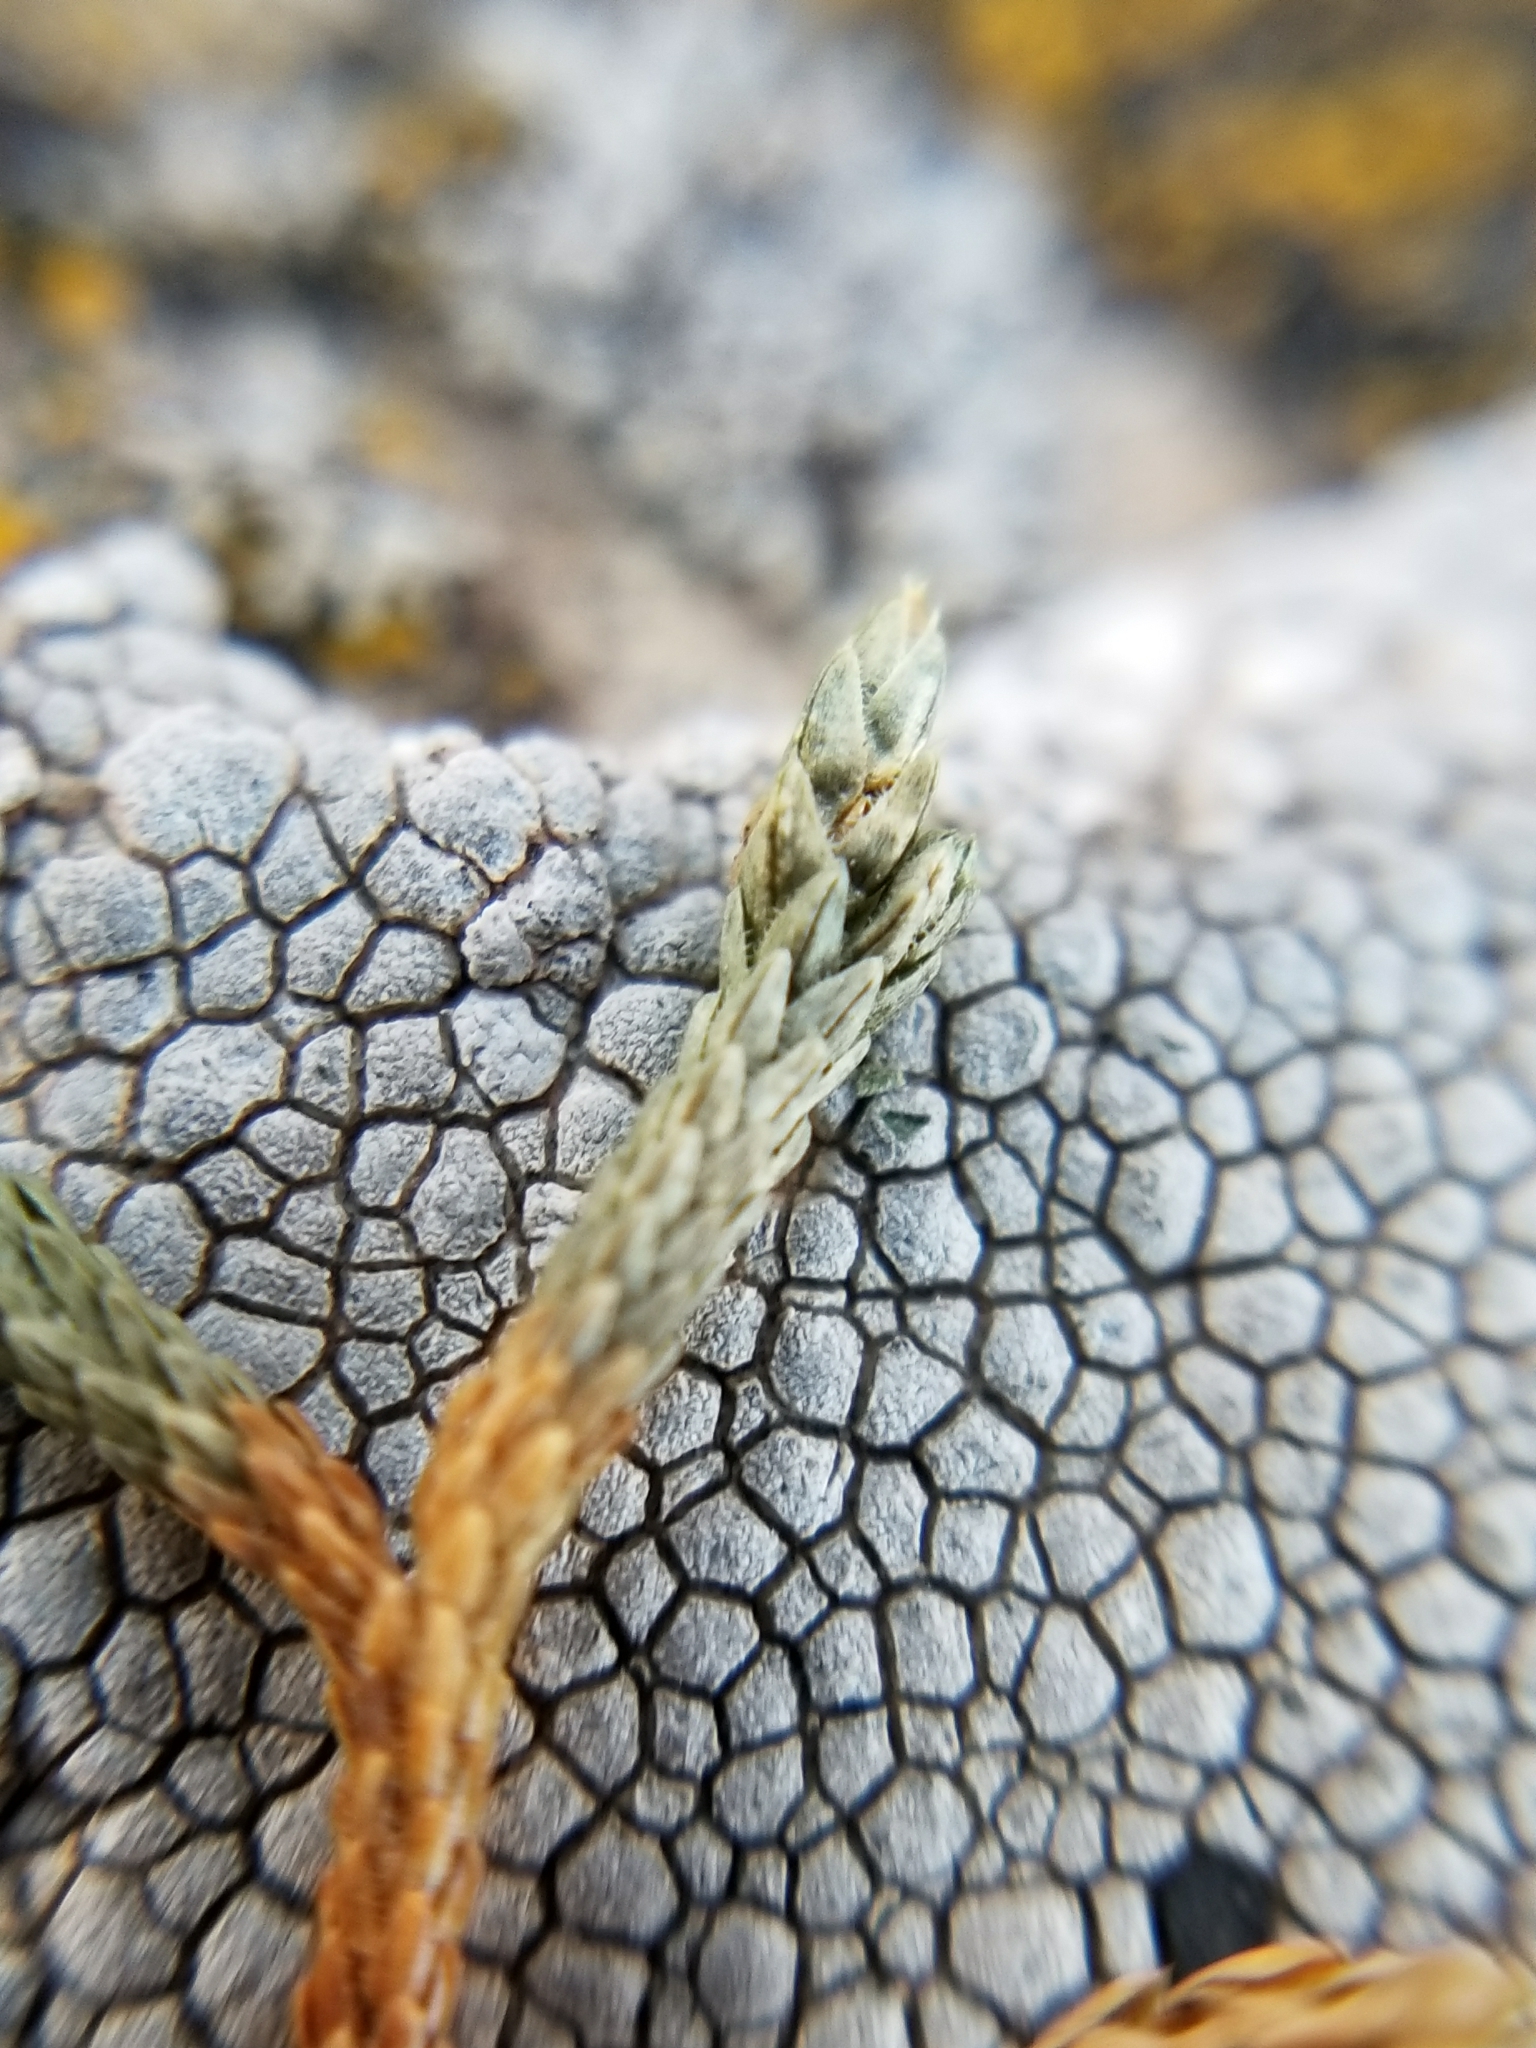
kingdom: Plantae
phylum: Tracheophyta
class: Lycopodiopsida
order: Selaginellales
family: Selaginellaceae
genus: Selaginella
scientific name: Selaginella mutica
